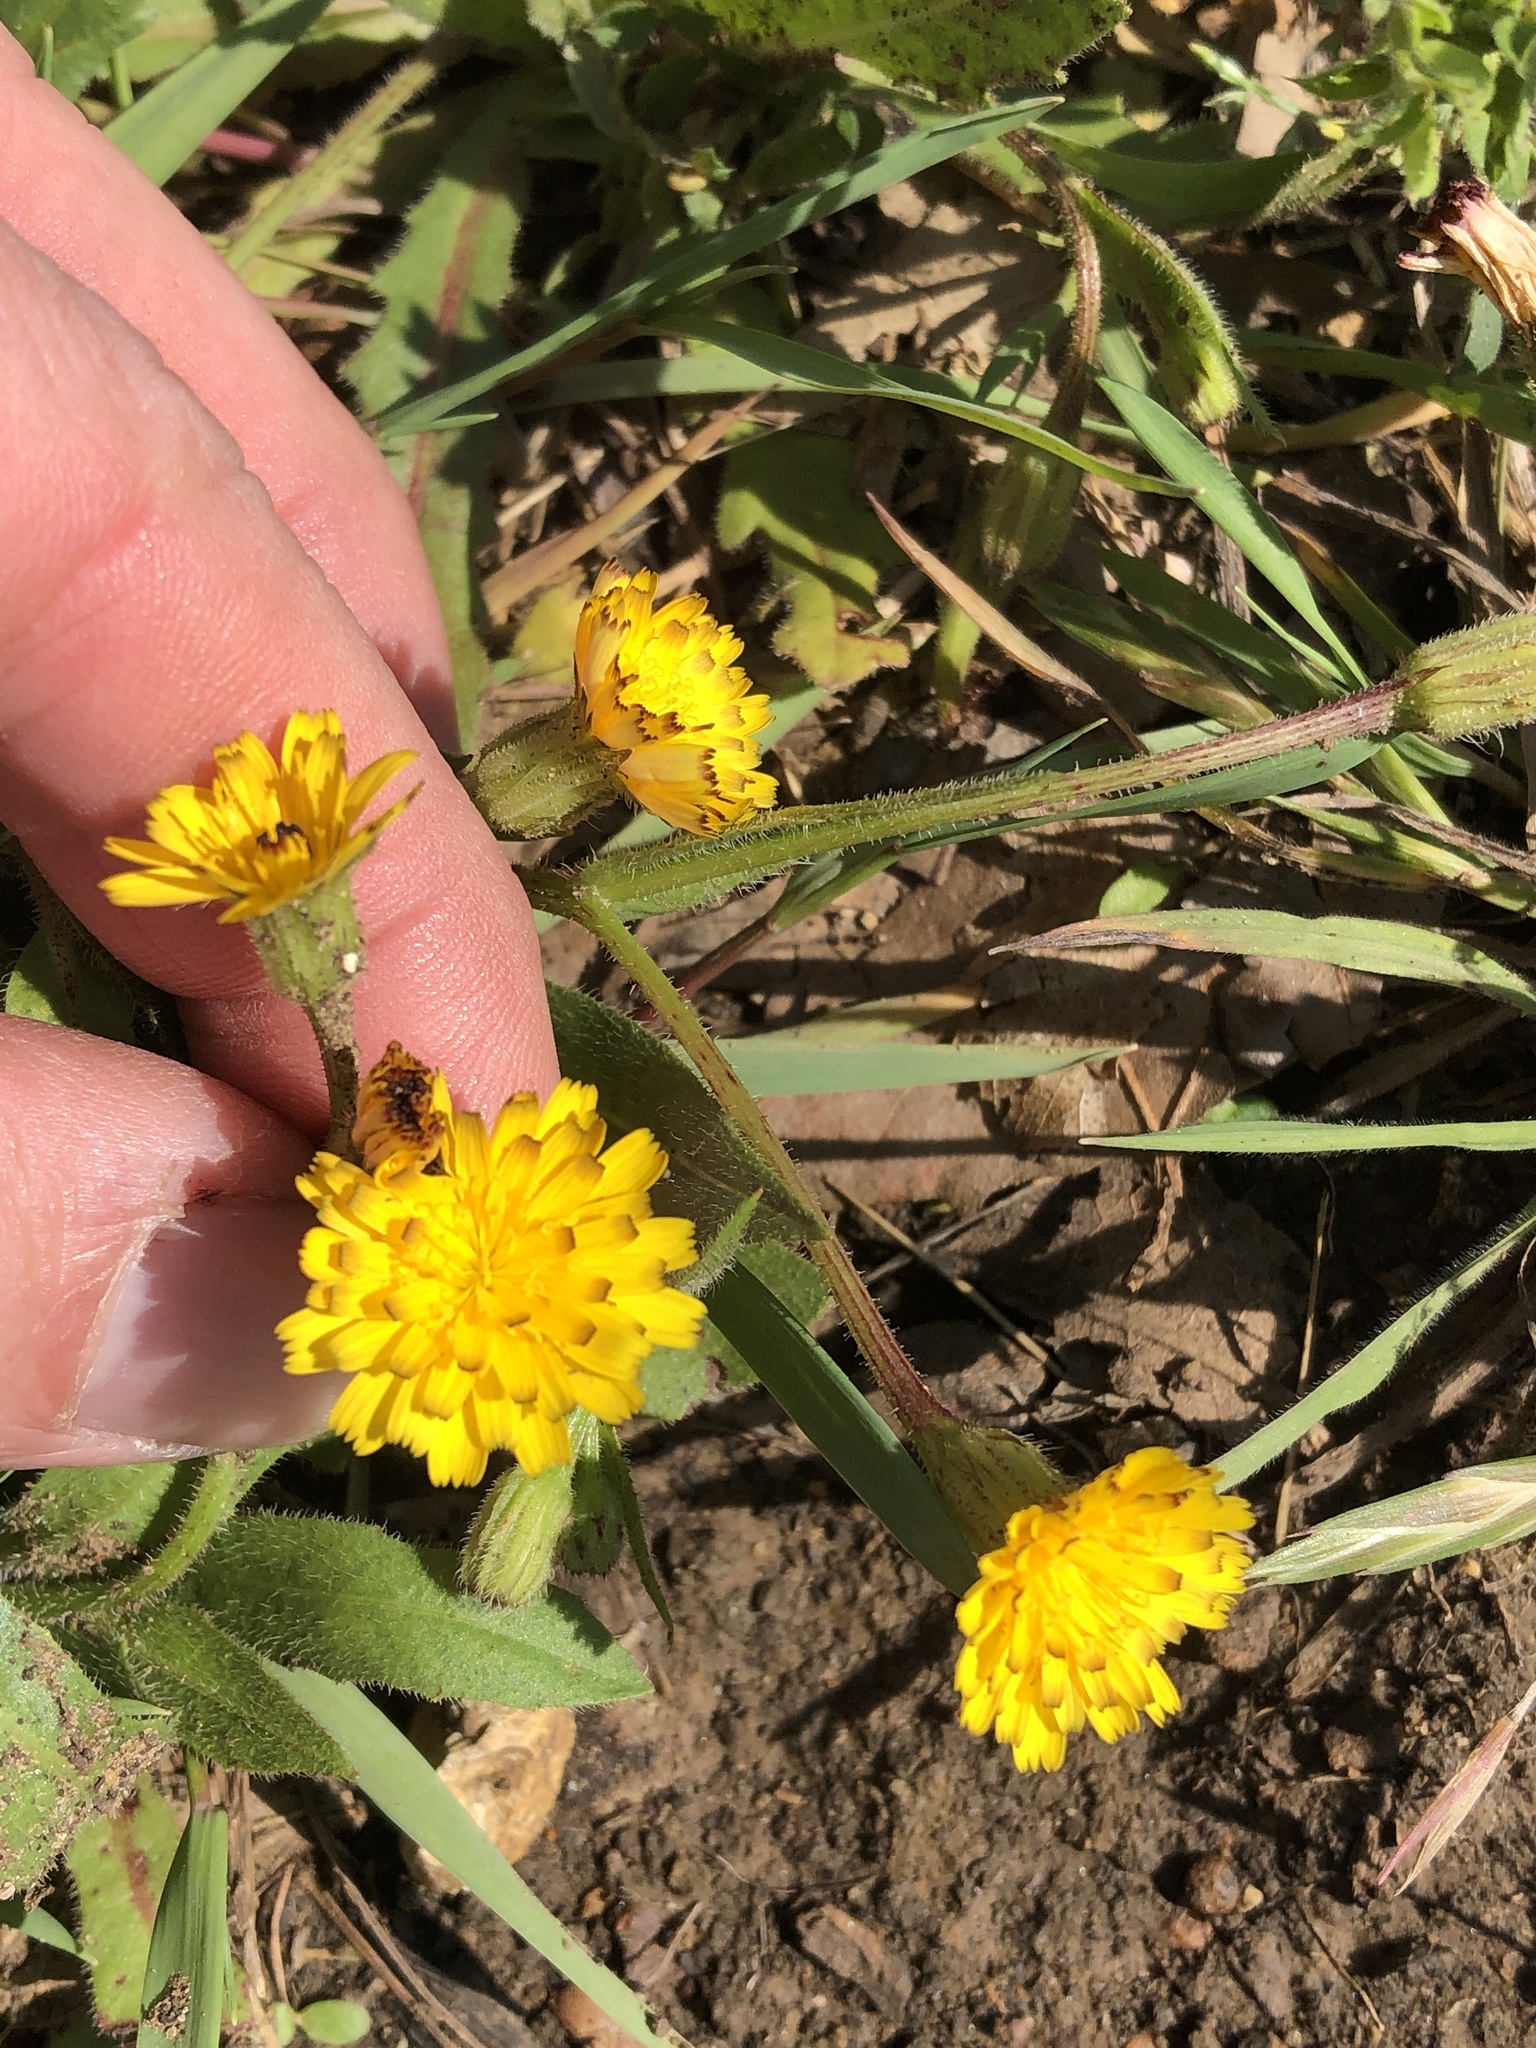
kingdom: Plantae
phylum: Tracheophyta
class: Magnoliopsida
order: Asterales
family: Asteraceae
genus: Hedypnois
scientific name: Hedypnois rhagadioloides
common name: Cretan weed
